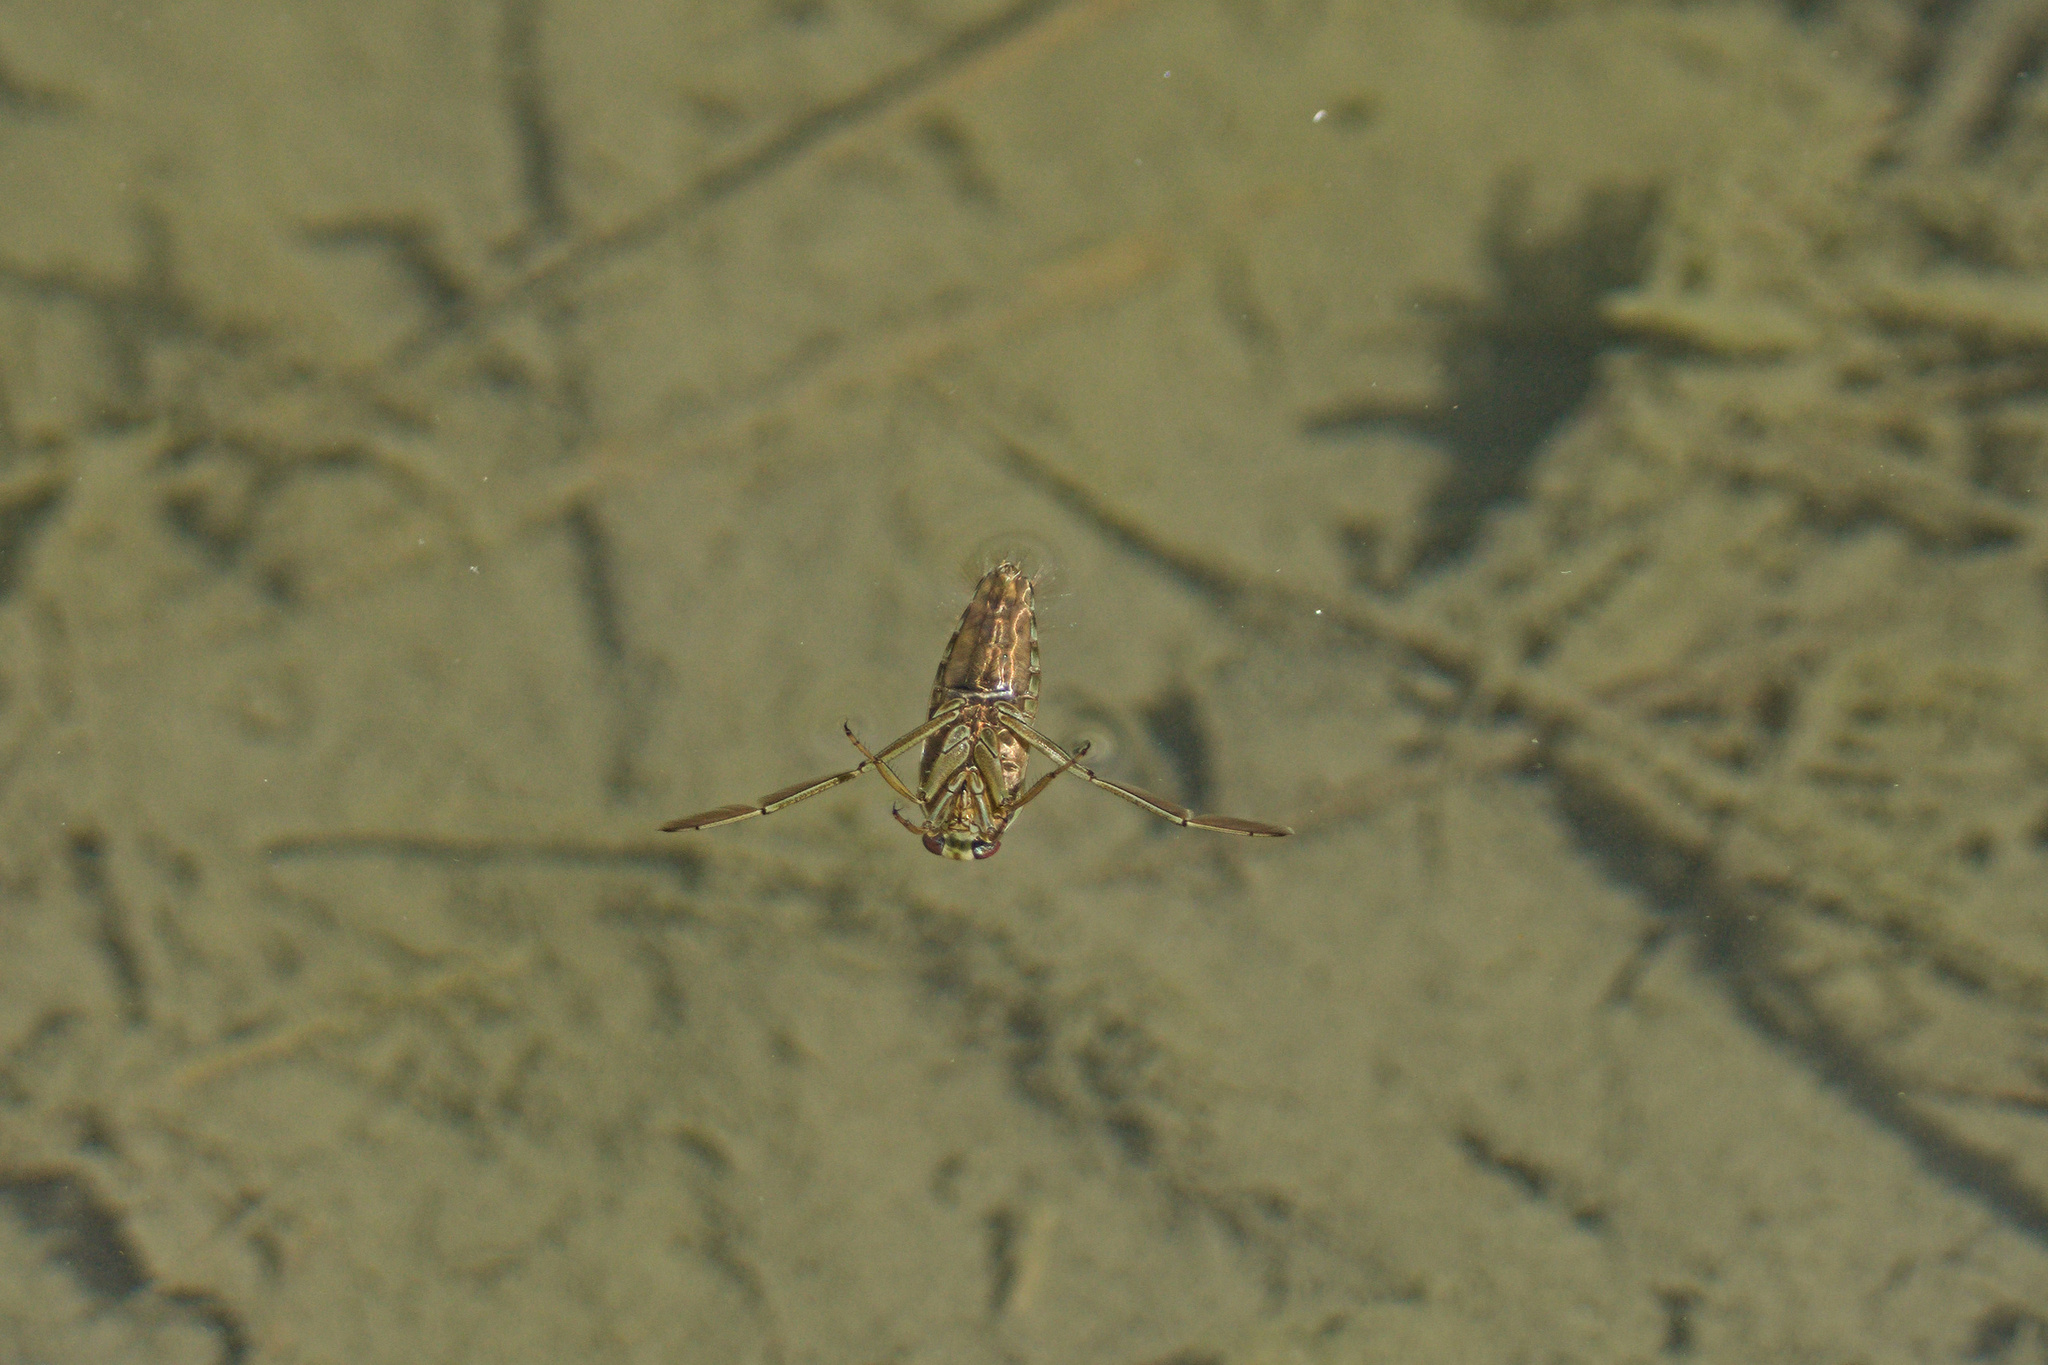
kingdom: Animalia
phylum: Arthropoda
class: Insecta
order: Hemiptera
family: Notonectidae
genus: Notonecta
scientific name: Notonecta
